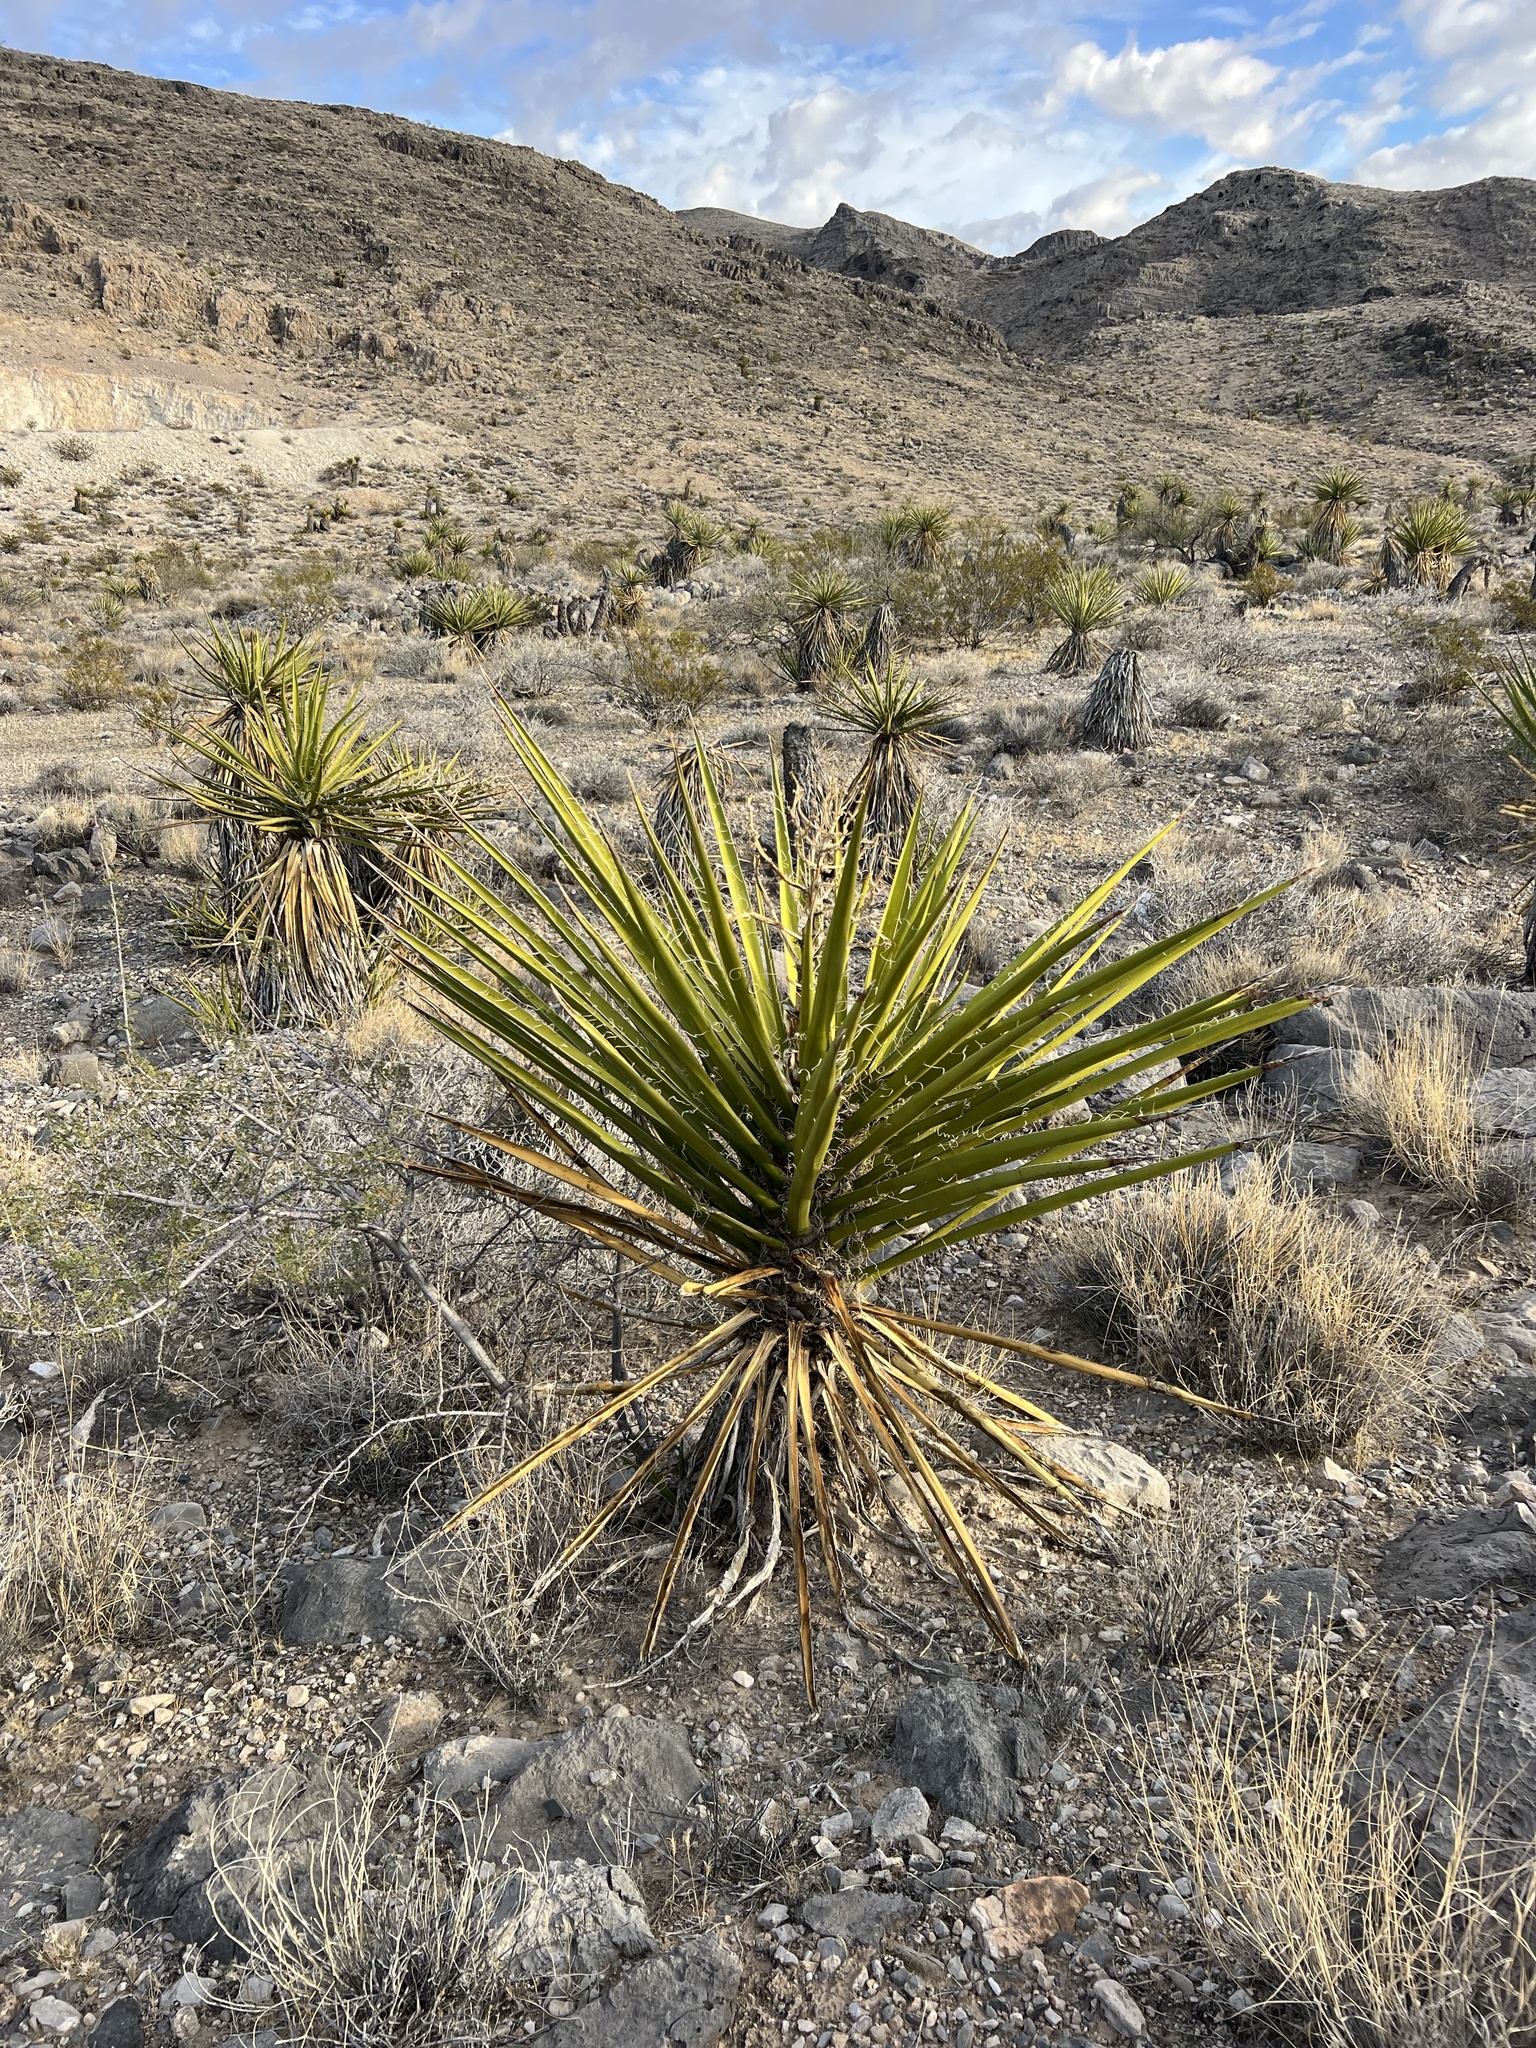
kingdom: Plantae
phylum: Tracheophyta
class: Liliopsida
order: Asparagales
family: Asparagaceae
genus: Yucca
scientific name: Yucca schidigera
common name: Mojave yucca
